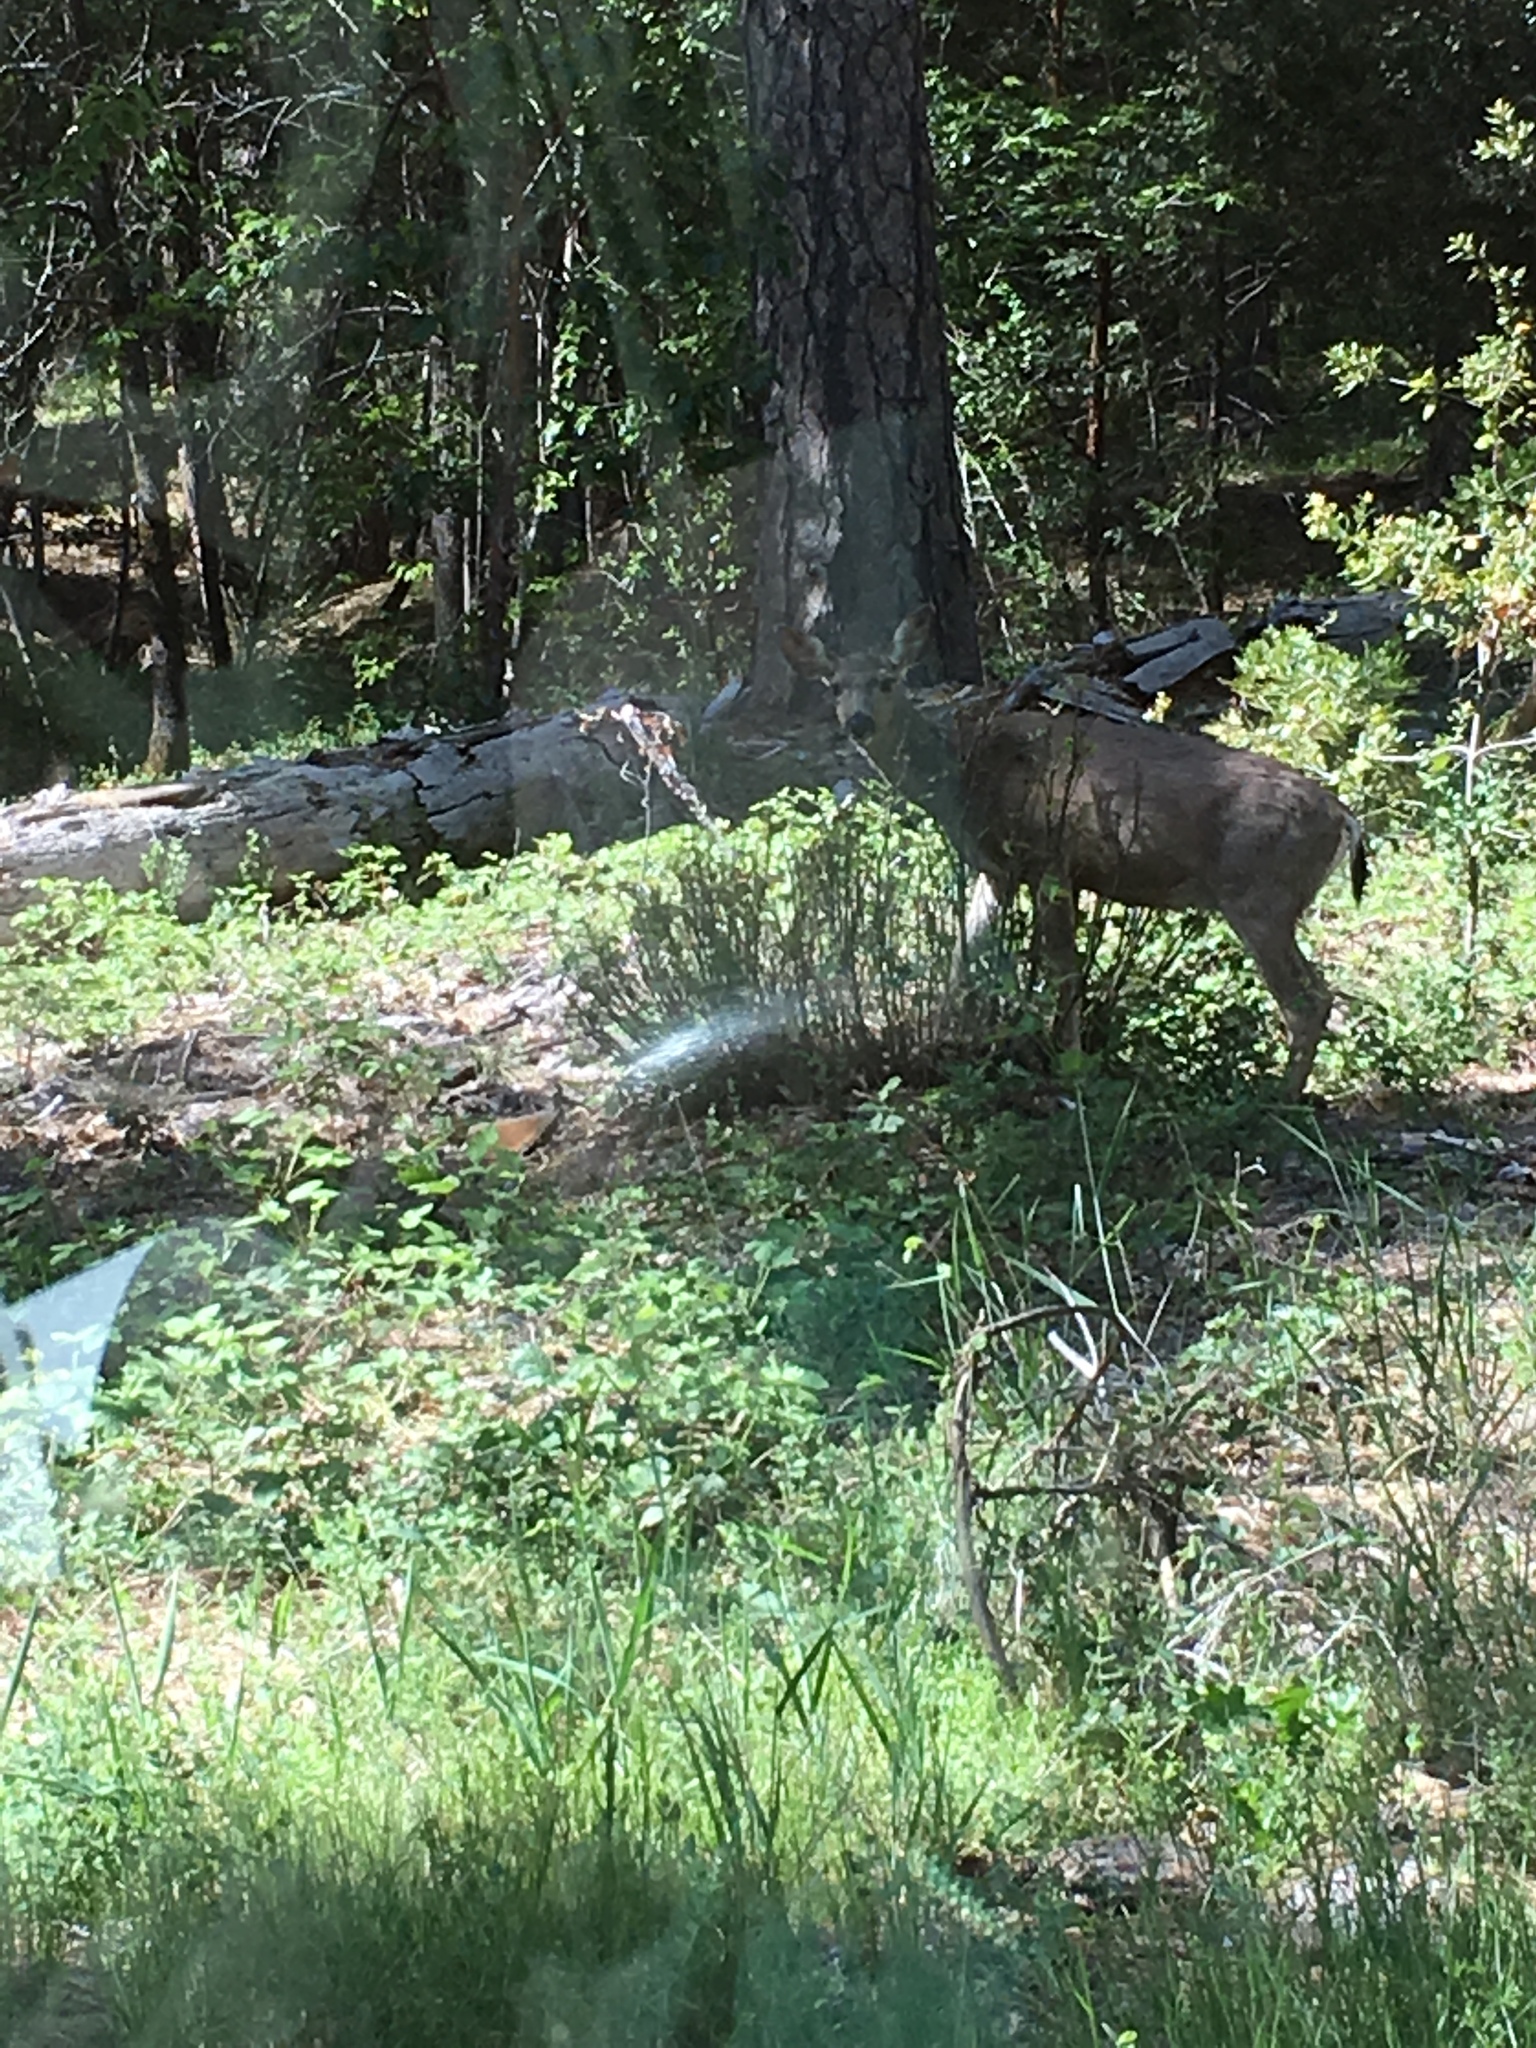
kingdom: Animalia
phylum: Chordata
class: Mammalia
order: Artiodactyla
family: Cervidae
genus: Odocoileus
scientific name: Odocoileus hemionus
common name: Mule deer
